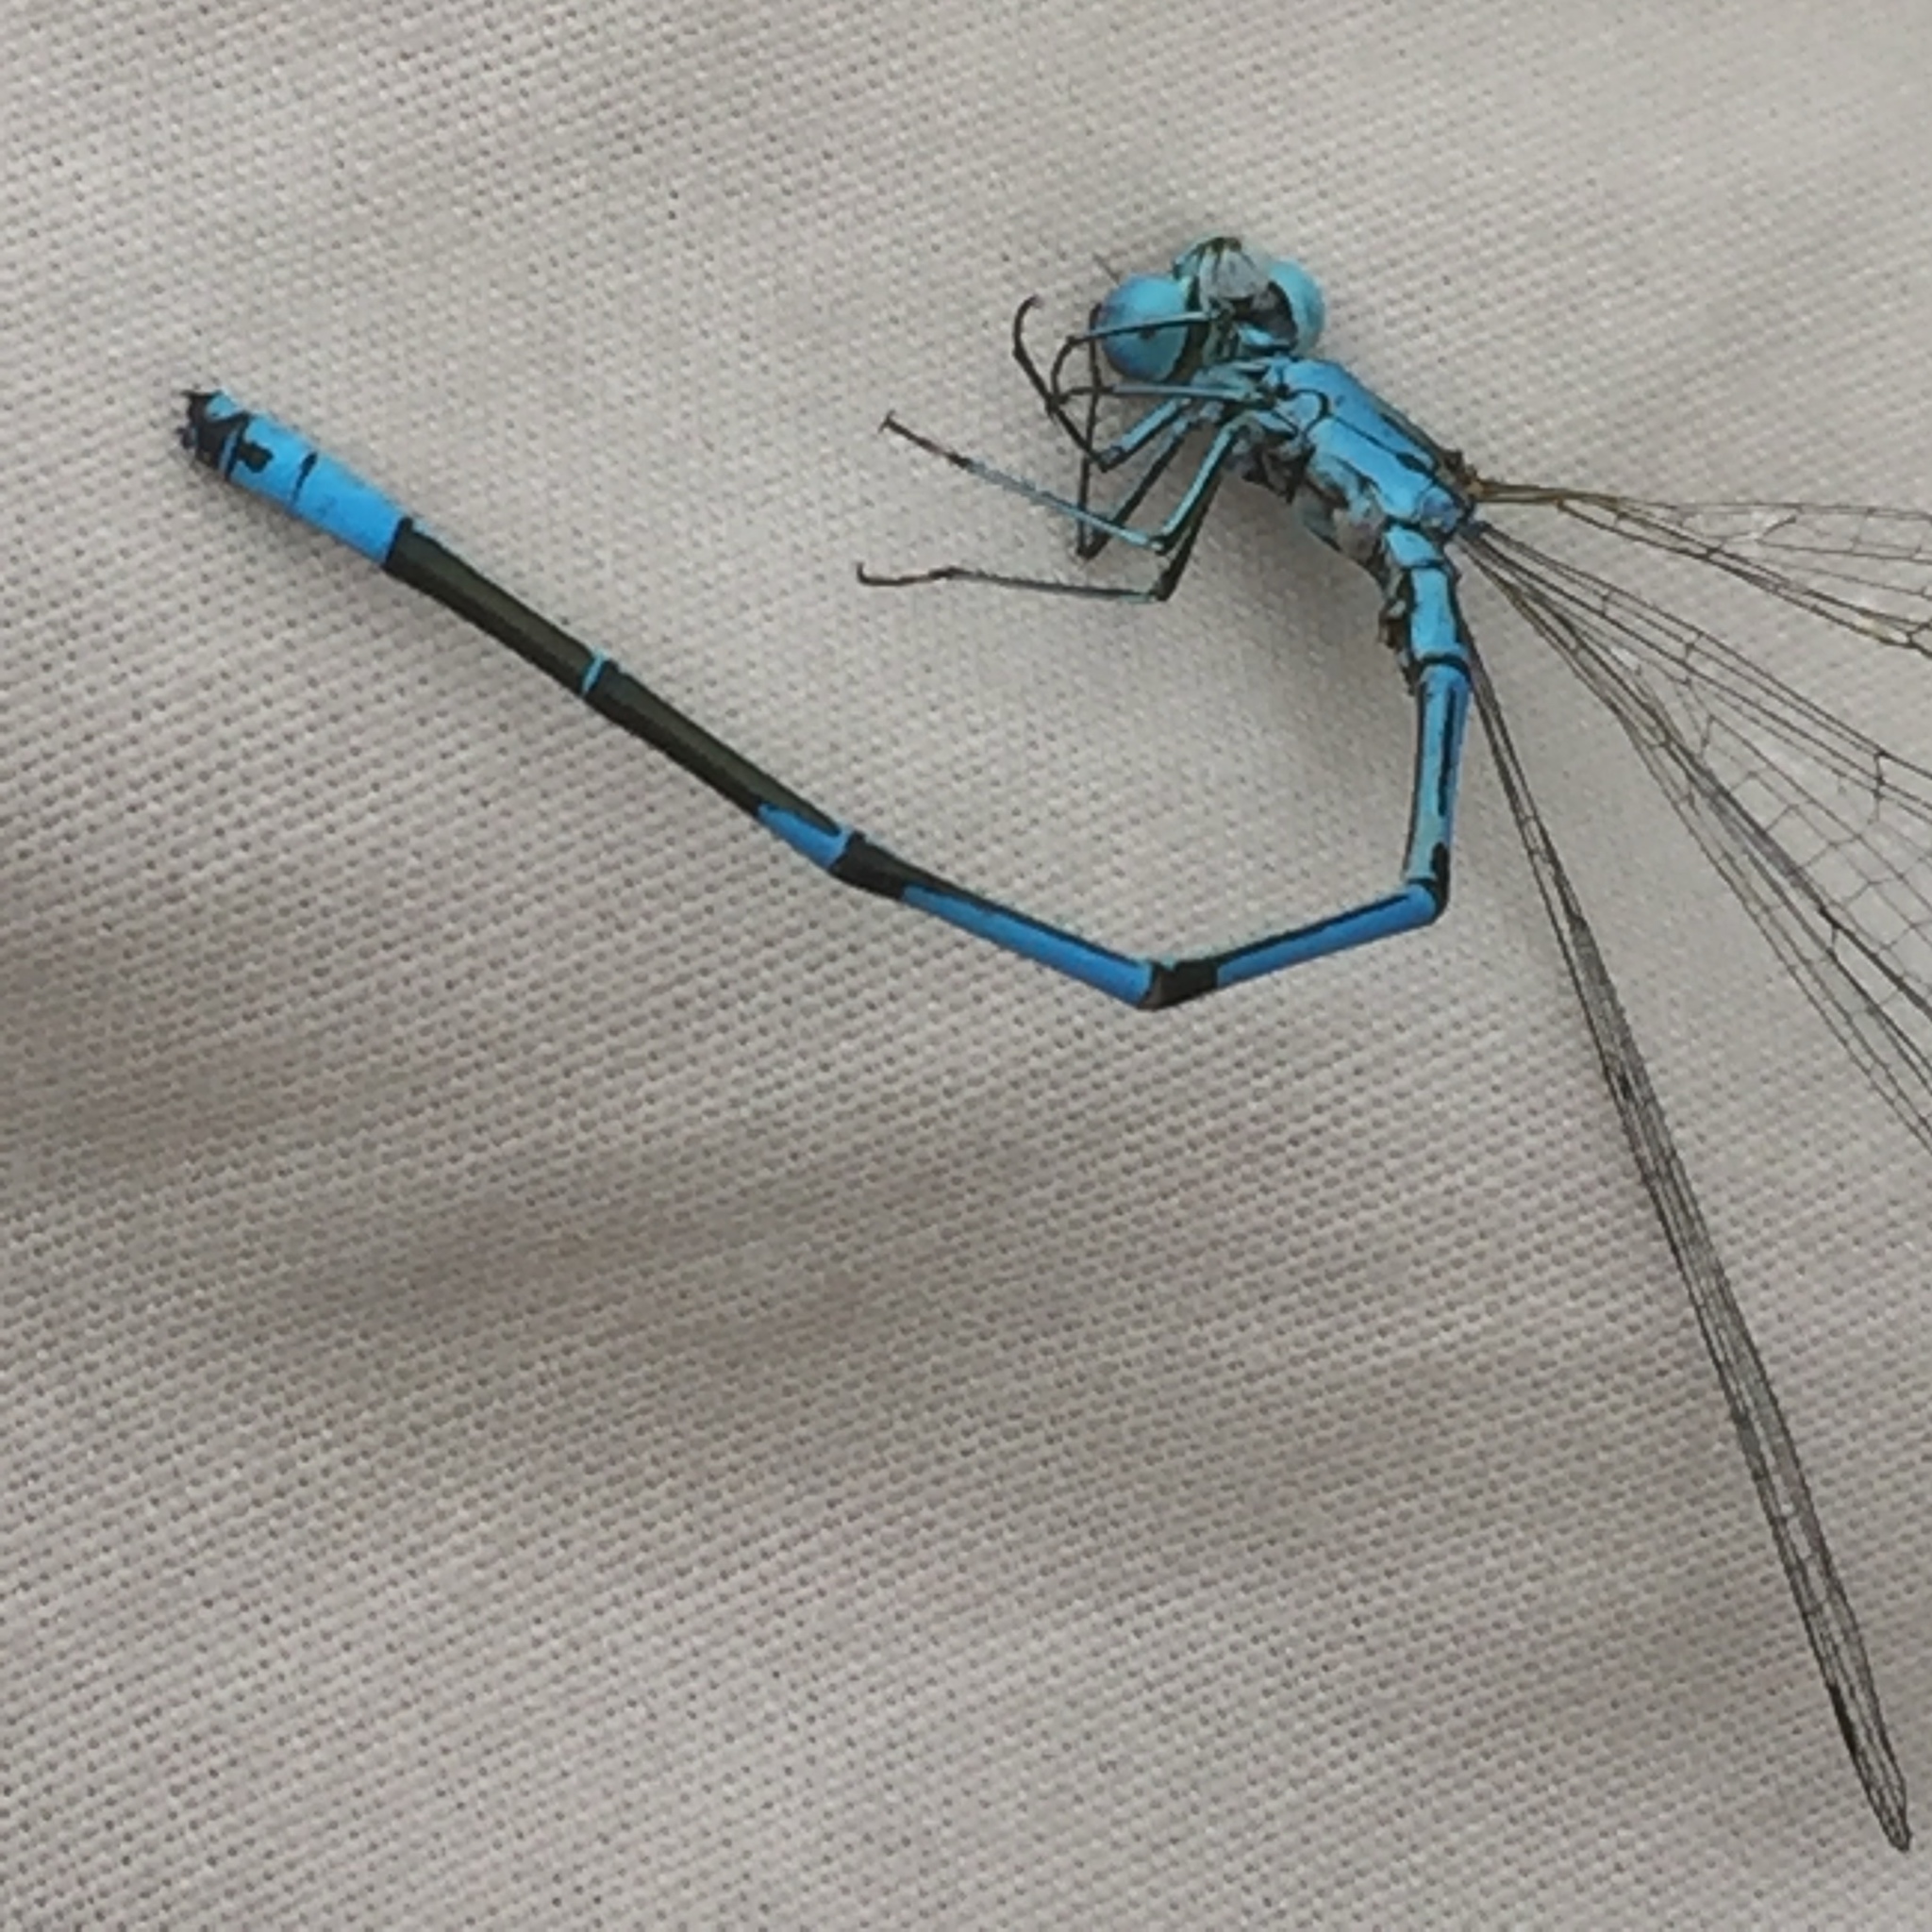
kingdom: Animalia
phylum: Arthropoda
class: Insecta
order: Odonata
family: Coenagrionidae
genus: Coenagrion
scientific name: Coenagrion puella
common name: Azure damselfly
